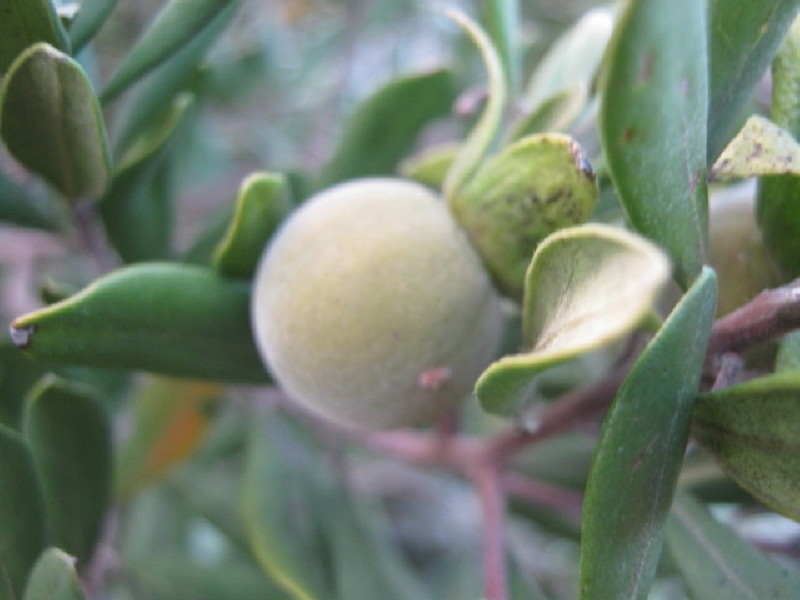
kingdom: Plantae
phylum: Tracheophyta
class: Magnoliopsida
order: Ericales
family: Ebenaceae
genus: Diospyros
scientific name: Diospyros dichrophylla
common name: Common star-apple
